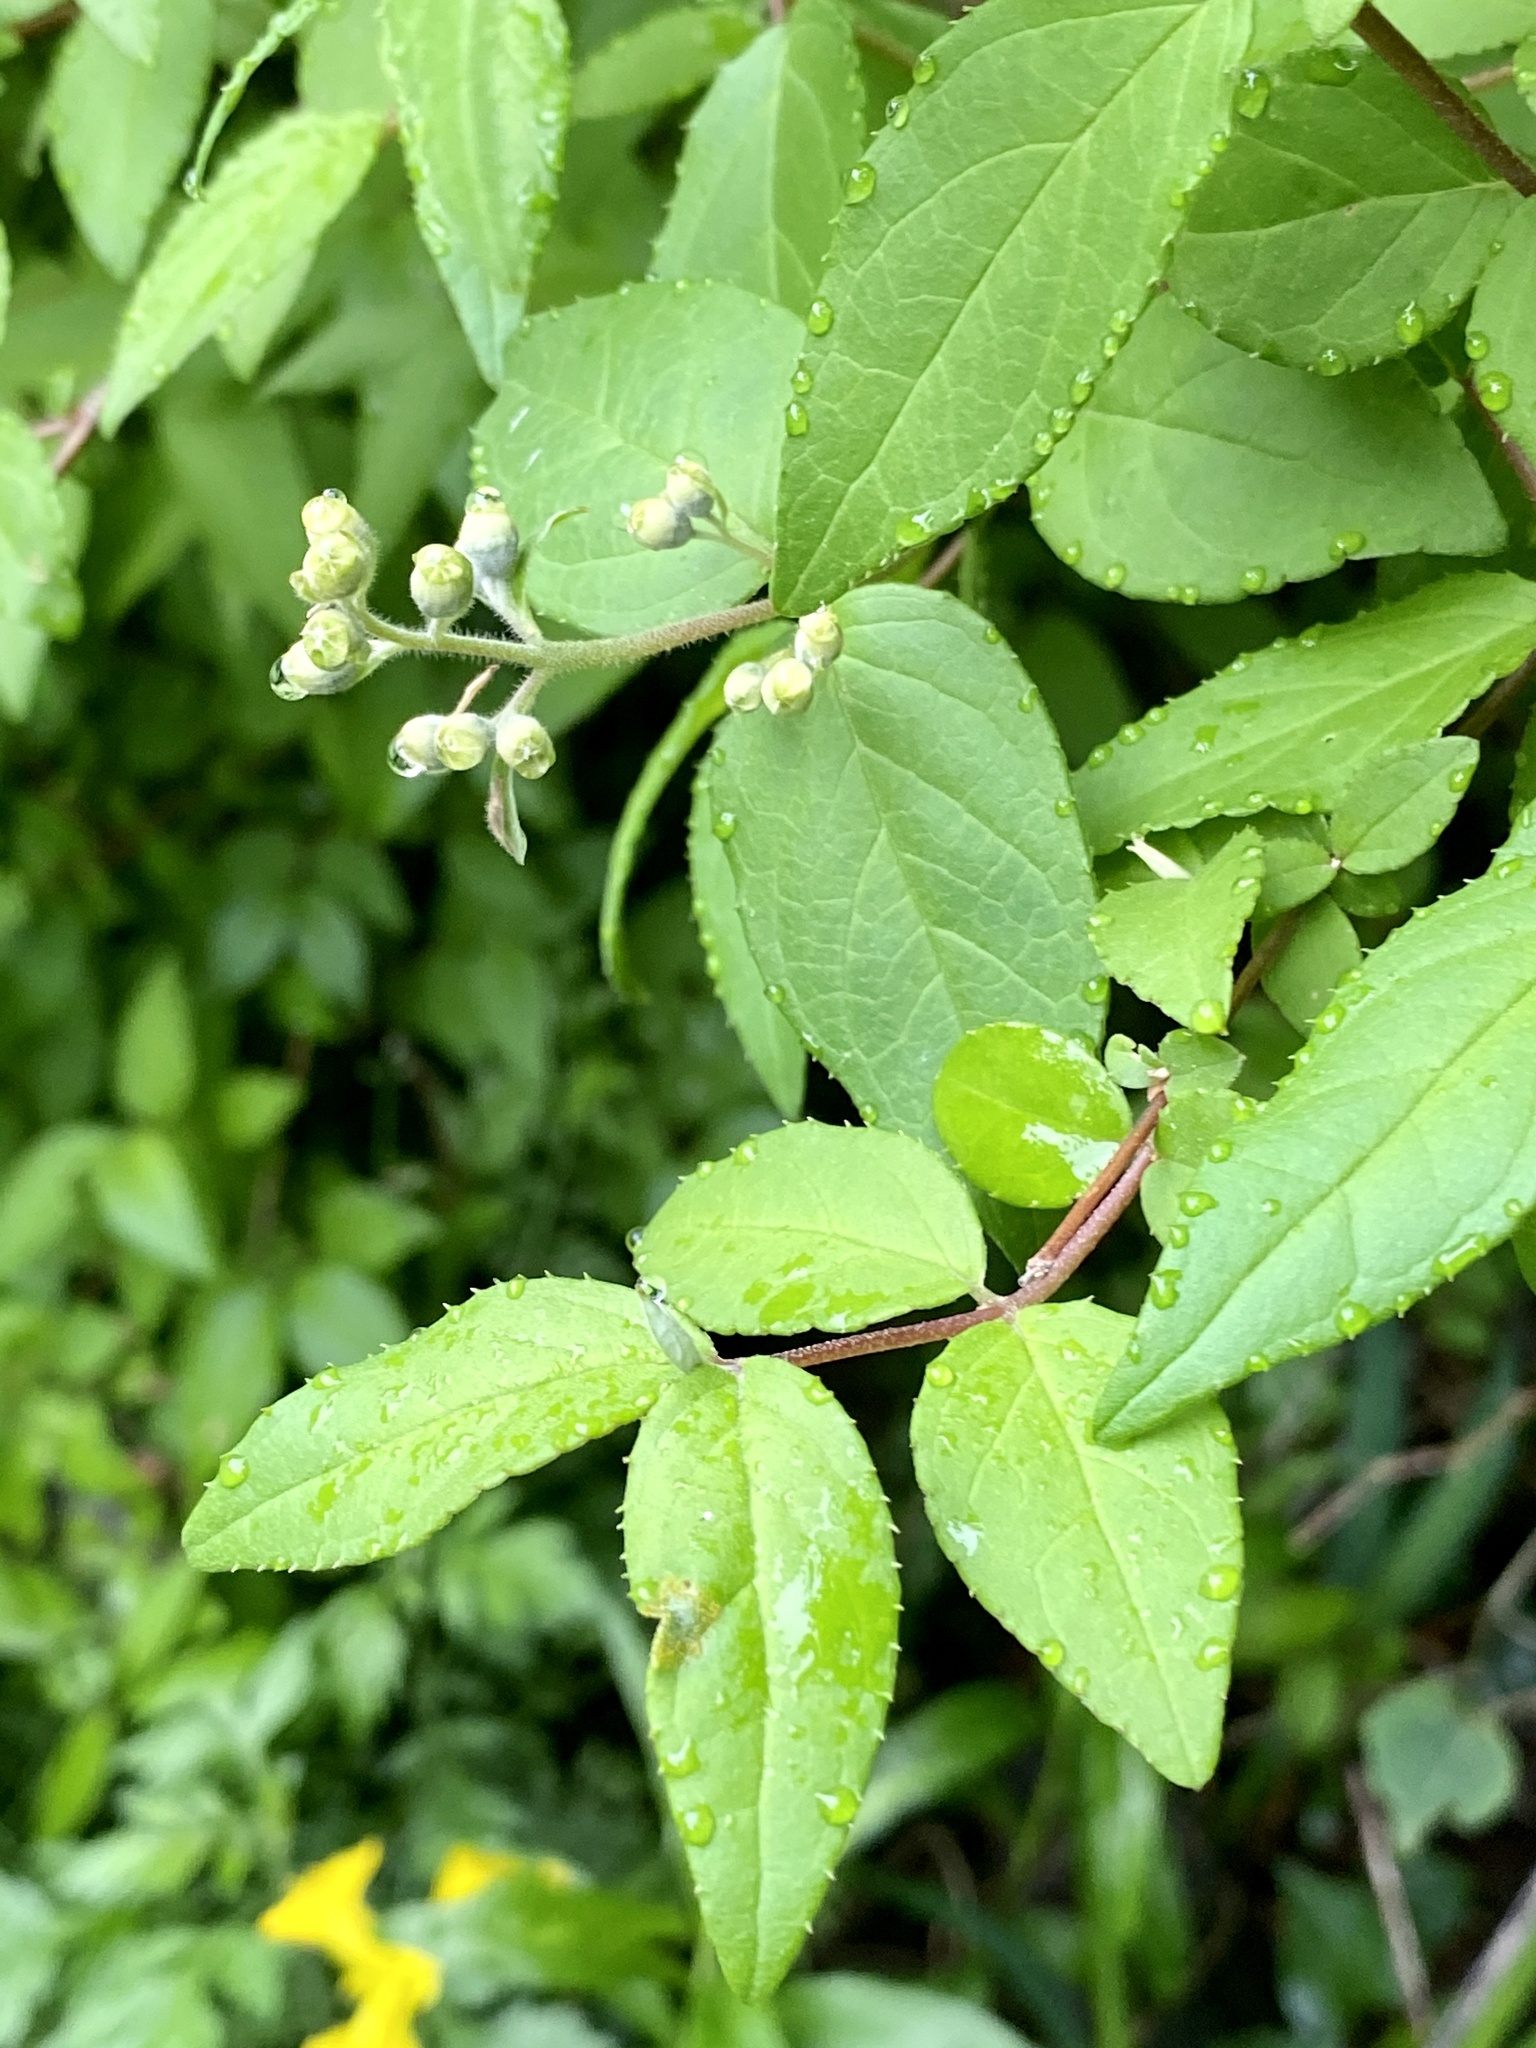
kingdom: Plantae
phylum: Tracheophyta
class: Magnoliopsida
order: Cornales
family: Hydrangeaceae
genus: Deutzia
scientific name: Deutzia crenata
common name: Deutzia
